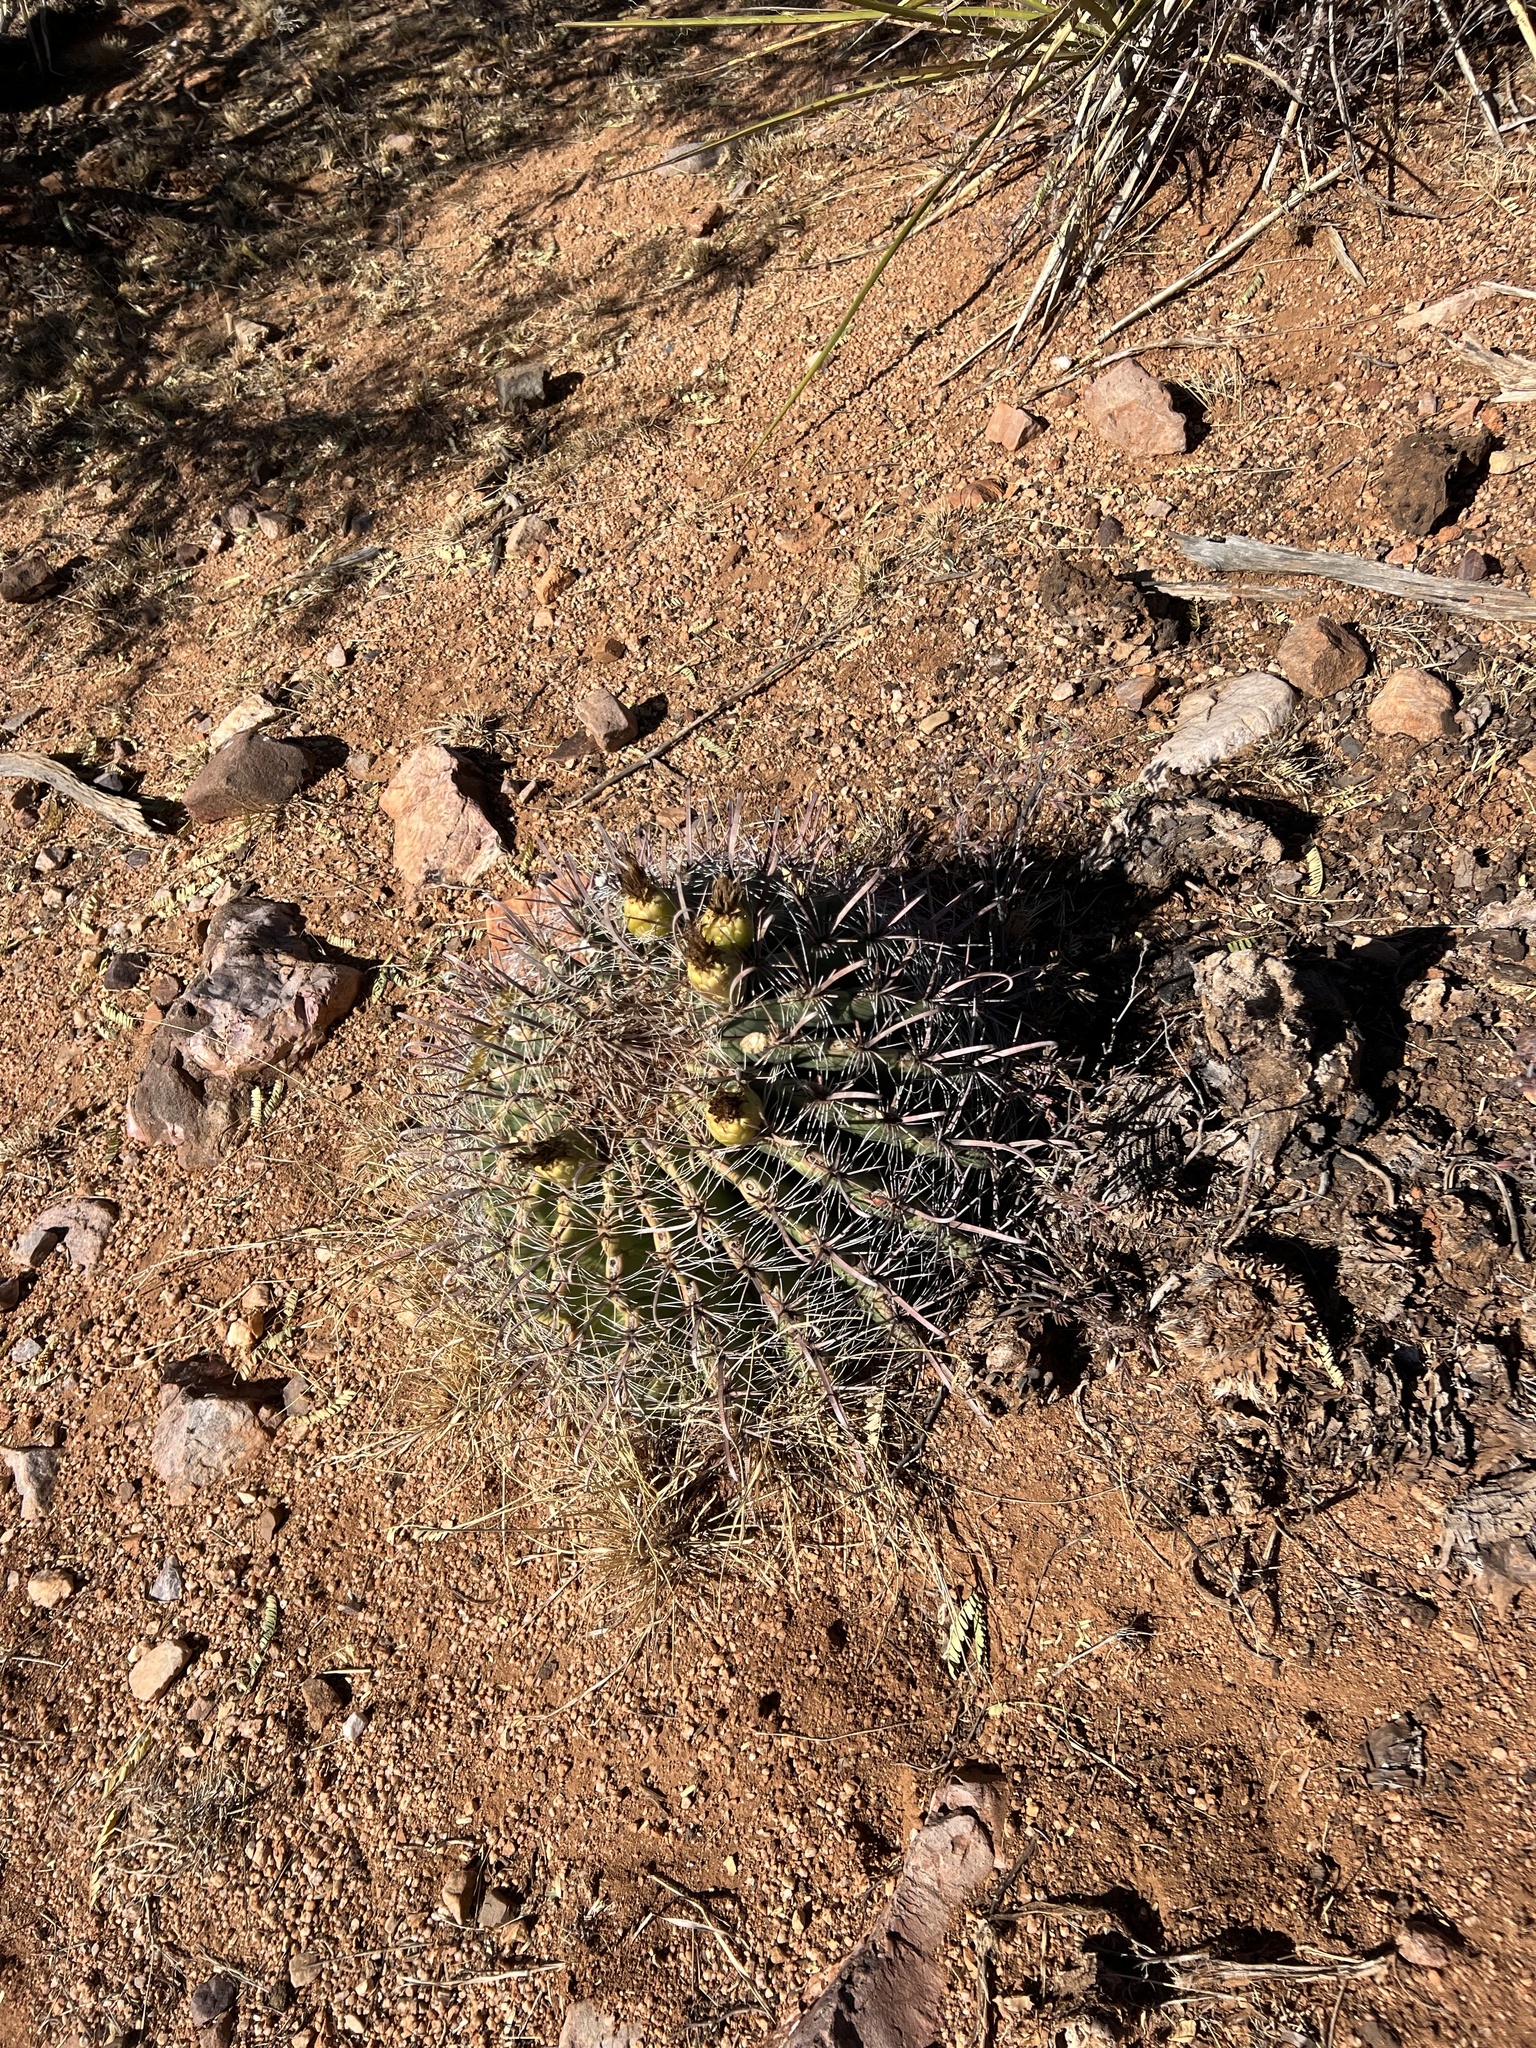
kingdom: Plantae
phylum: Tracheophyta
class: Magnoliopsida
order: Caryophyllales
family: Cactaceae
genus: Ferocactus
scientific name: Ferocactus wislizeni
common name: Candy barrel cactus
